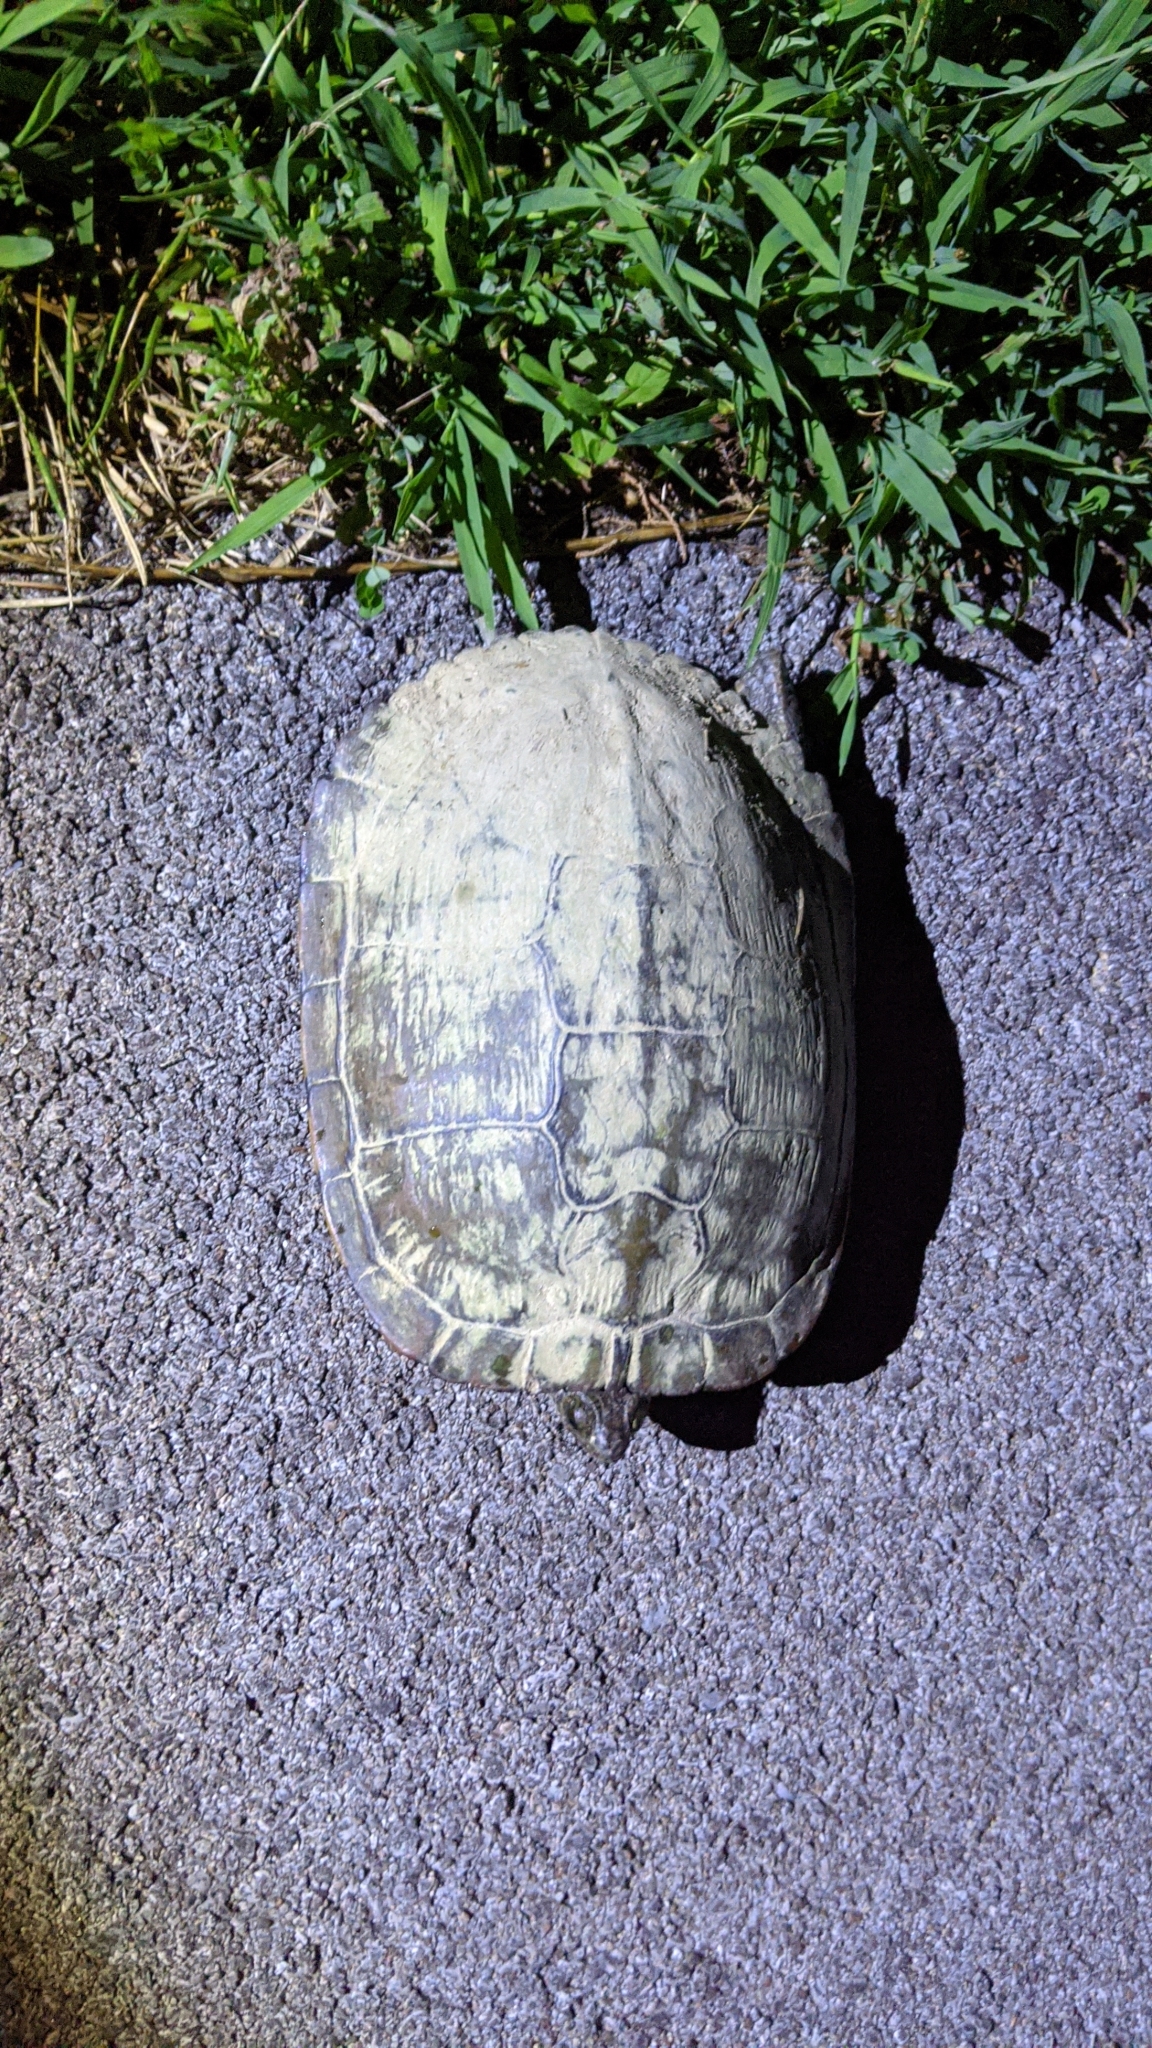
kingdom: Animalia
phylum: Chordata
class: Testudines
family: Emydidae
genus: Trachemys
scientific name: Trachemys scripta
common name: Slider
